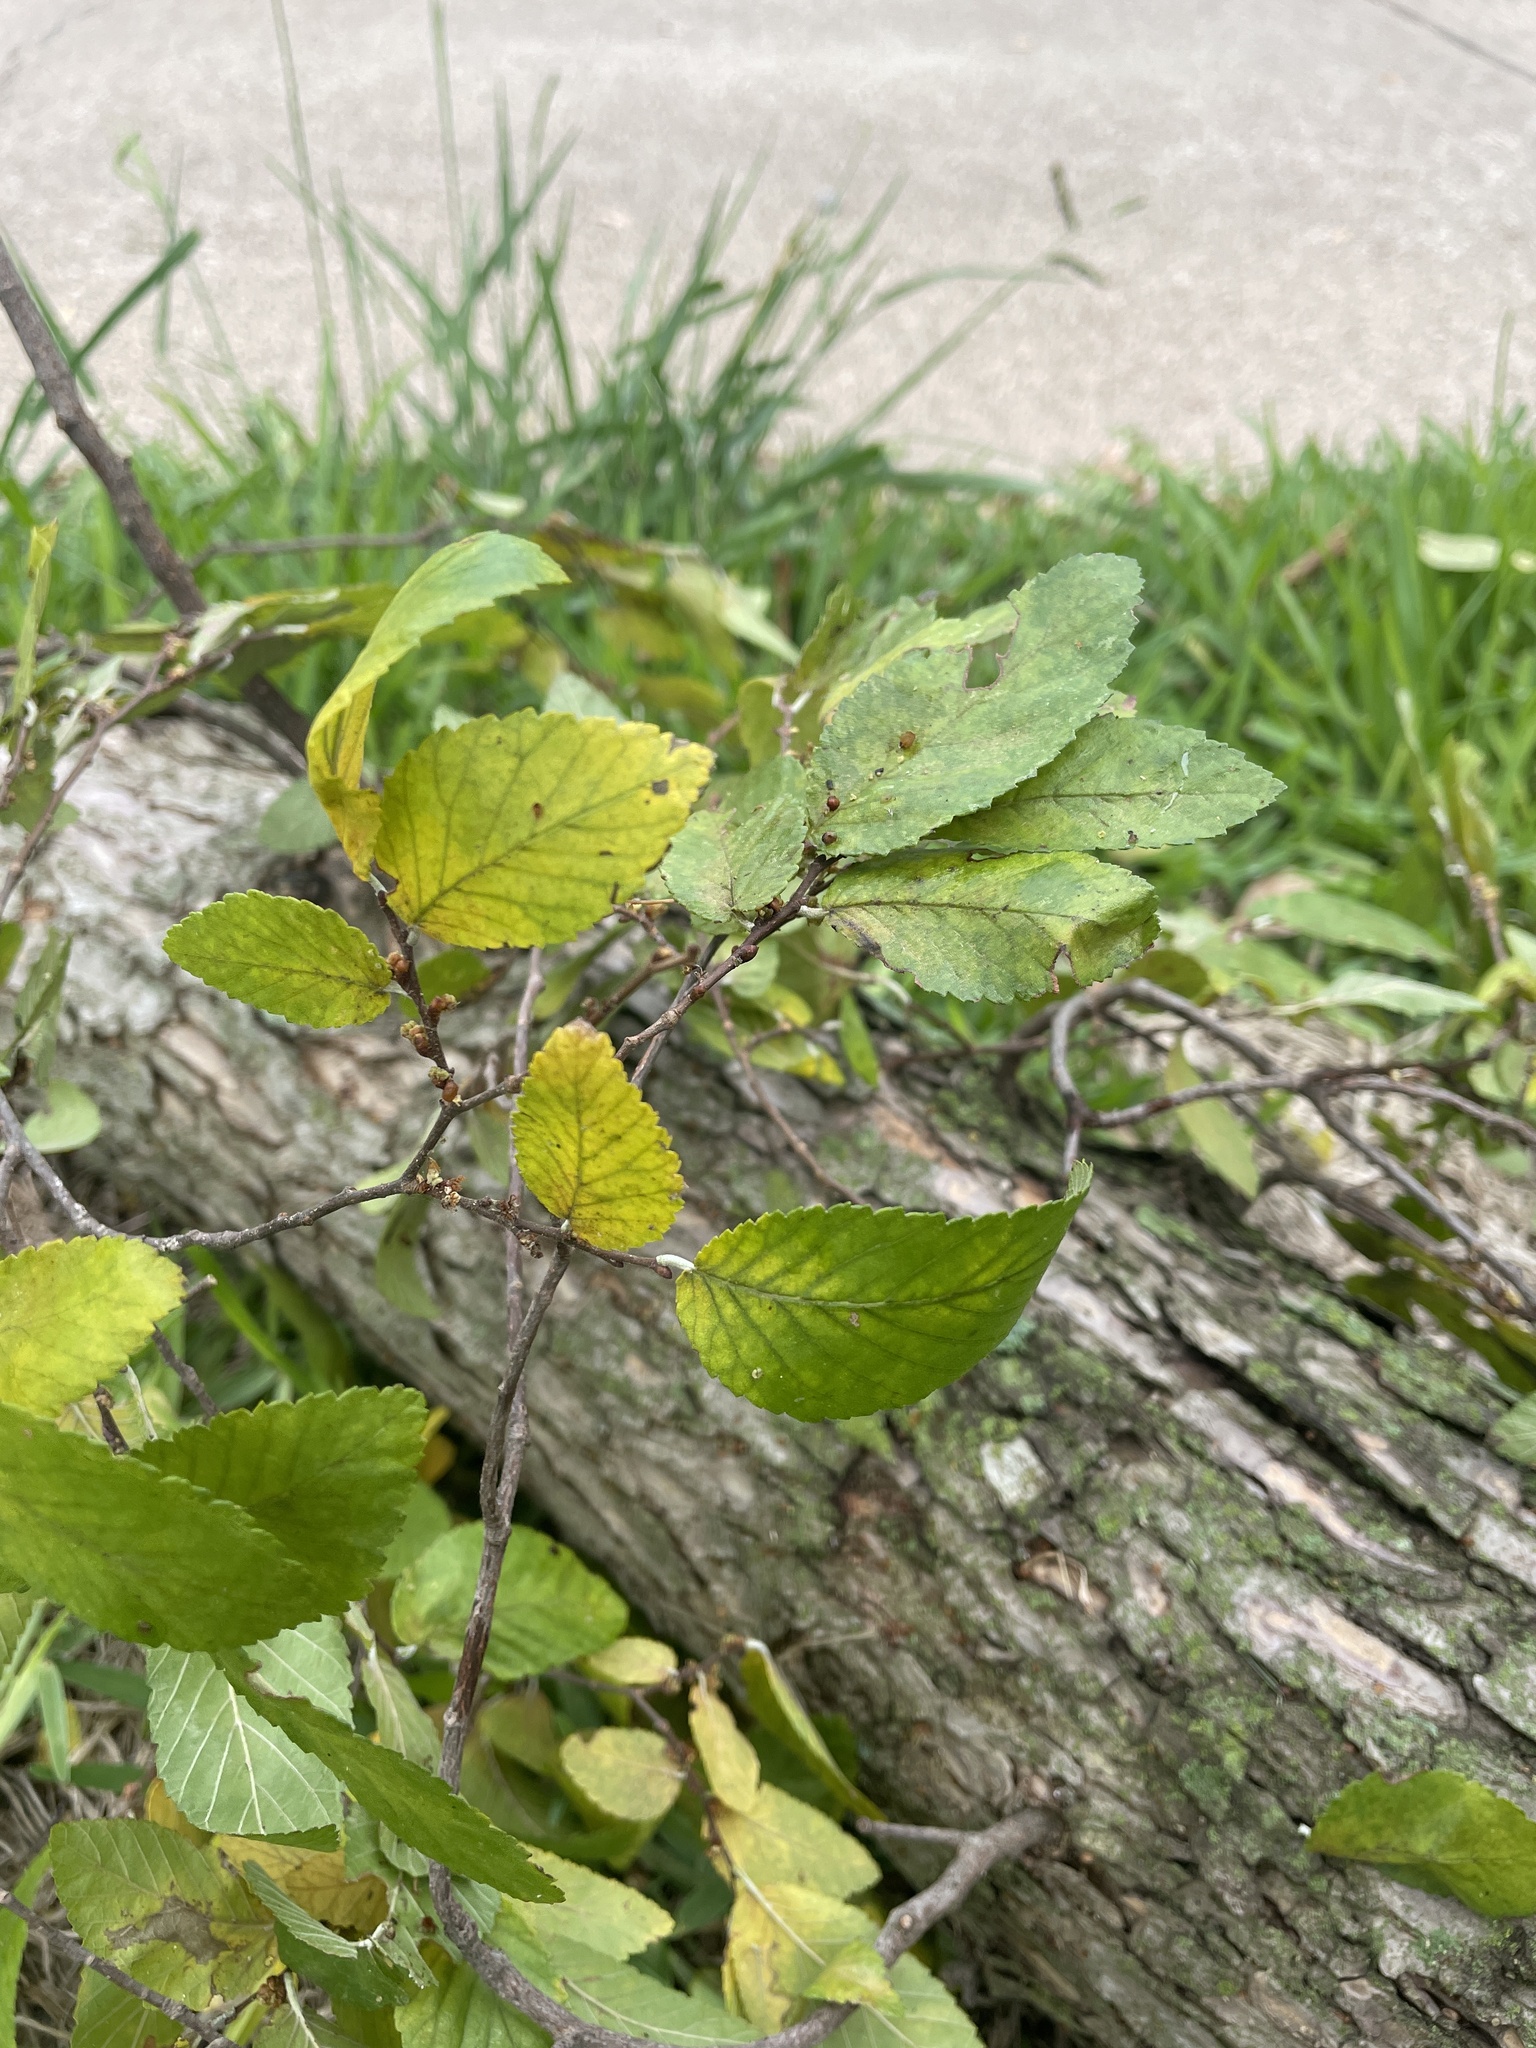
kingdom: Plantae
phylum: Tracheophyta
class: Magnoliopsida
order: Rosales
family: Ulmaceae
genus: Ulmus
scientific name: Ulmus crassifolia
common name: Basket elm
